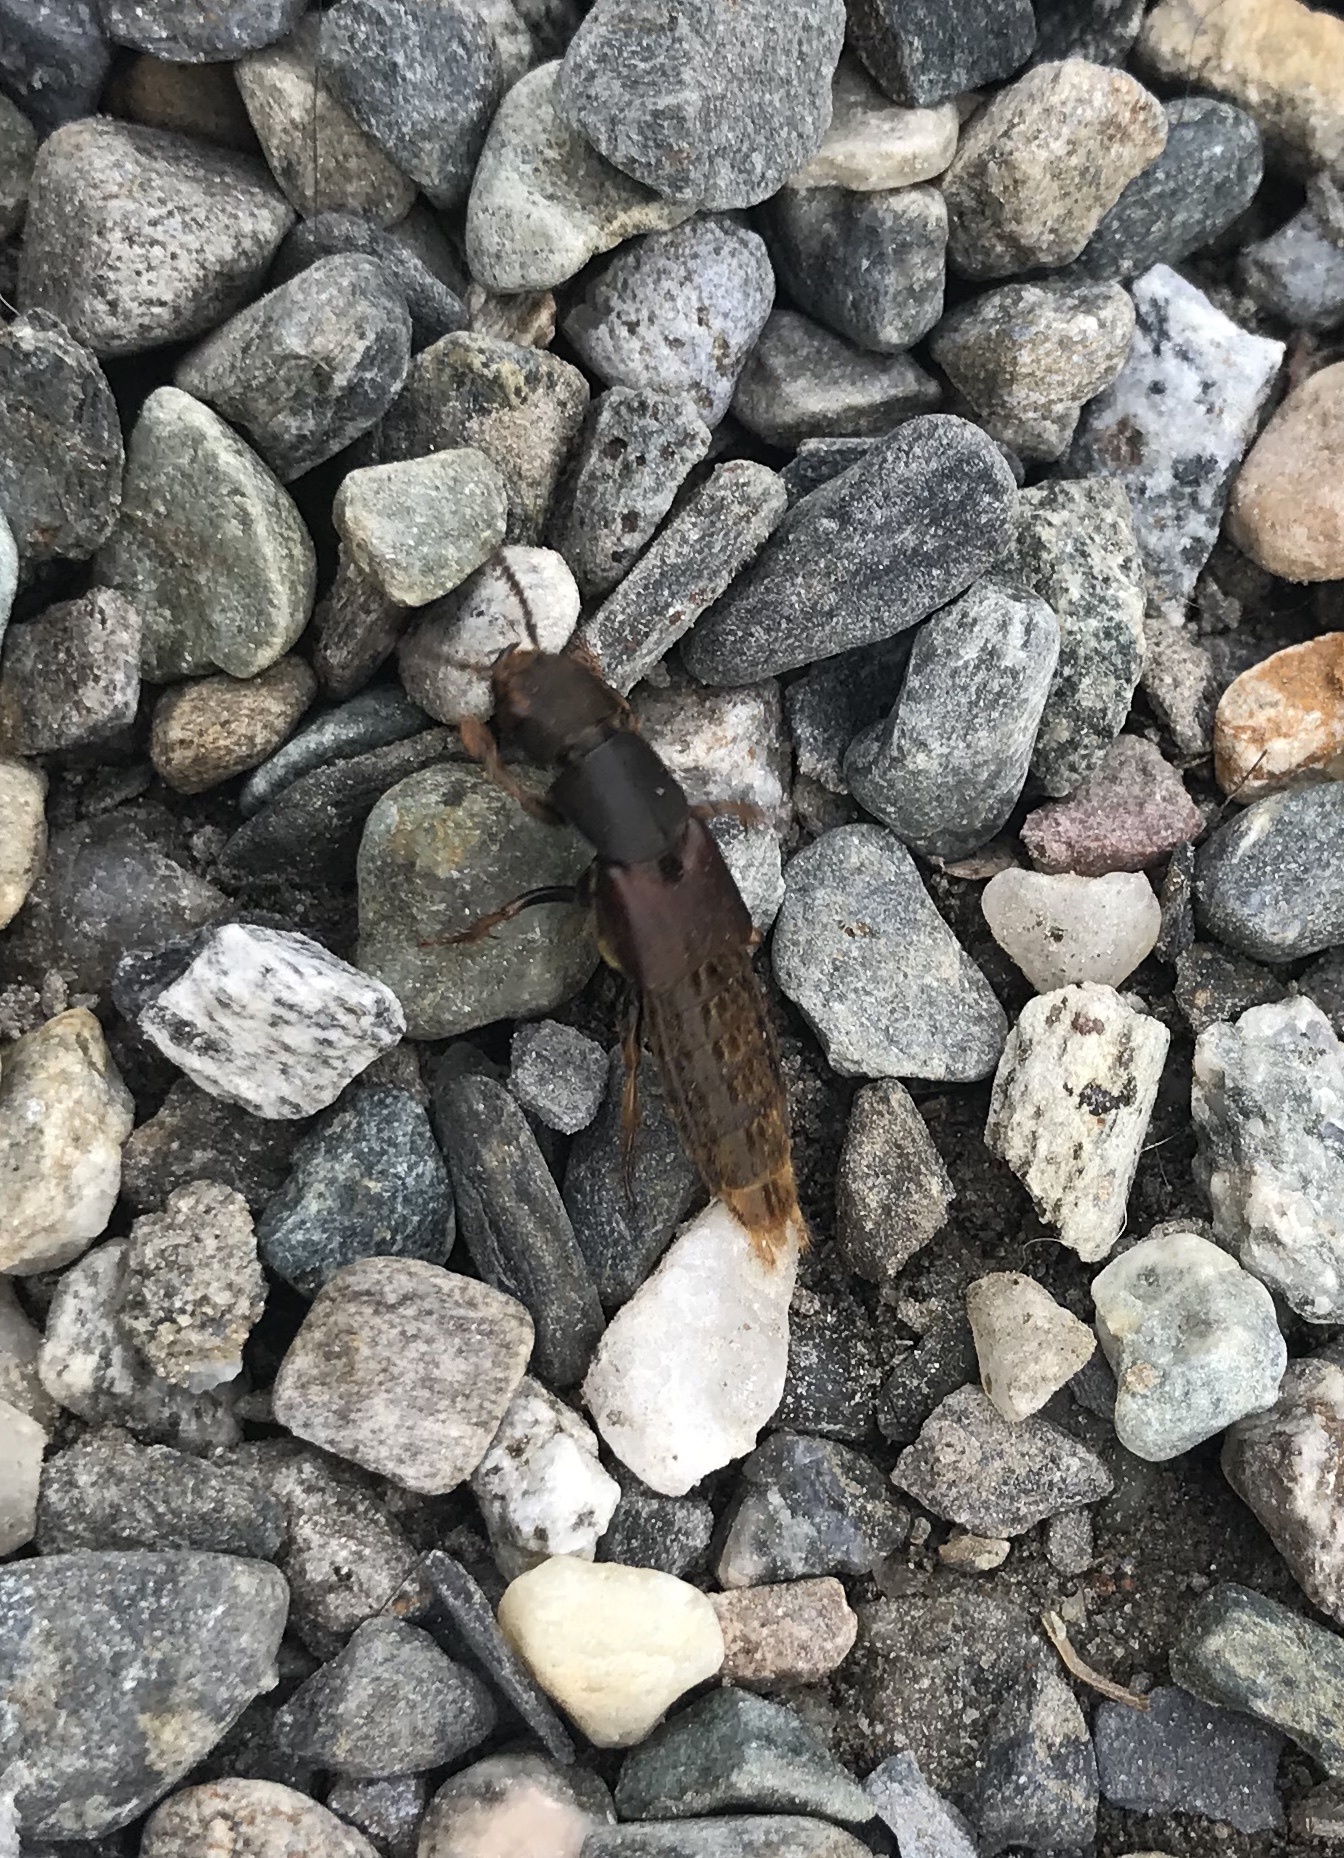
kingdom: Animalia
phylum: Arthropoda
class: Insecta
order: Coleoptera
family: Staphylinidae
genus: Platydracus
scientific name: Platydracus maculosus
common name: Brown rove beetle
